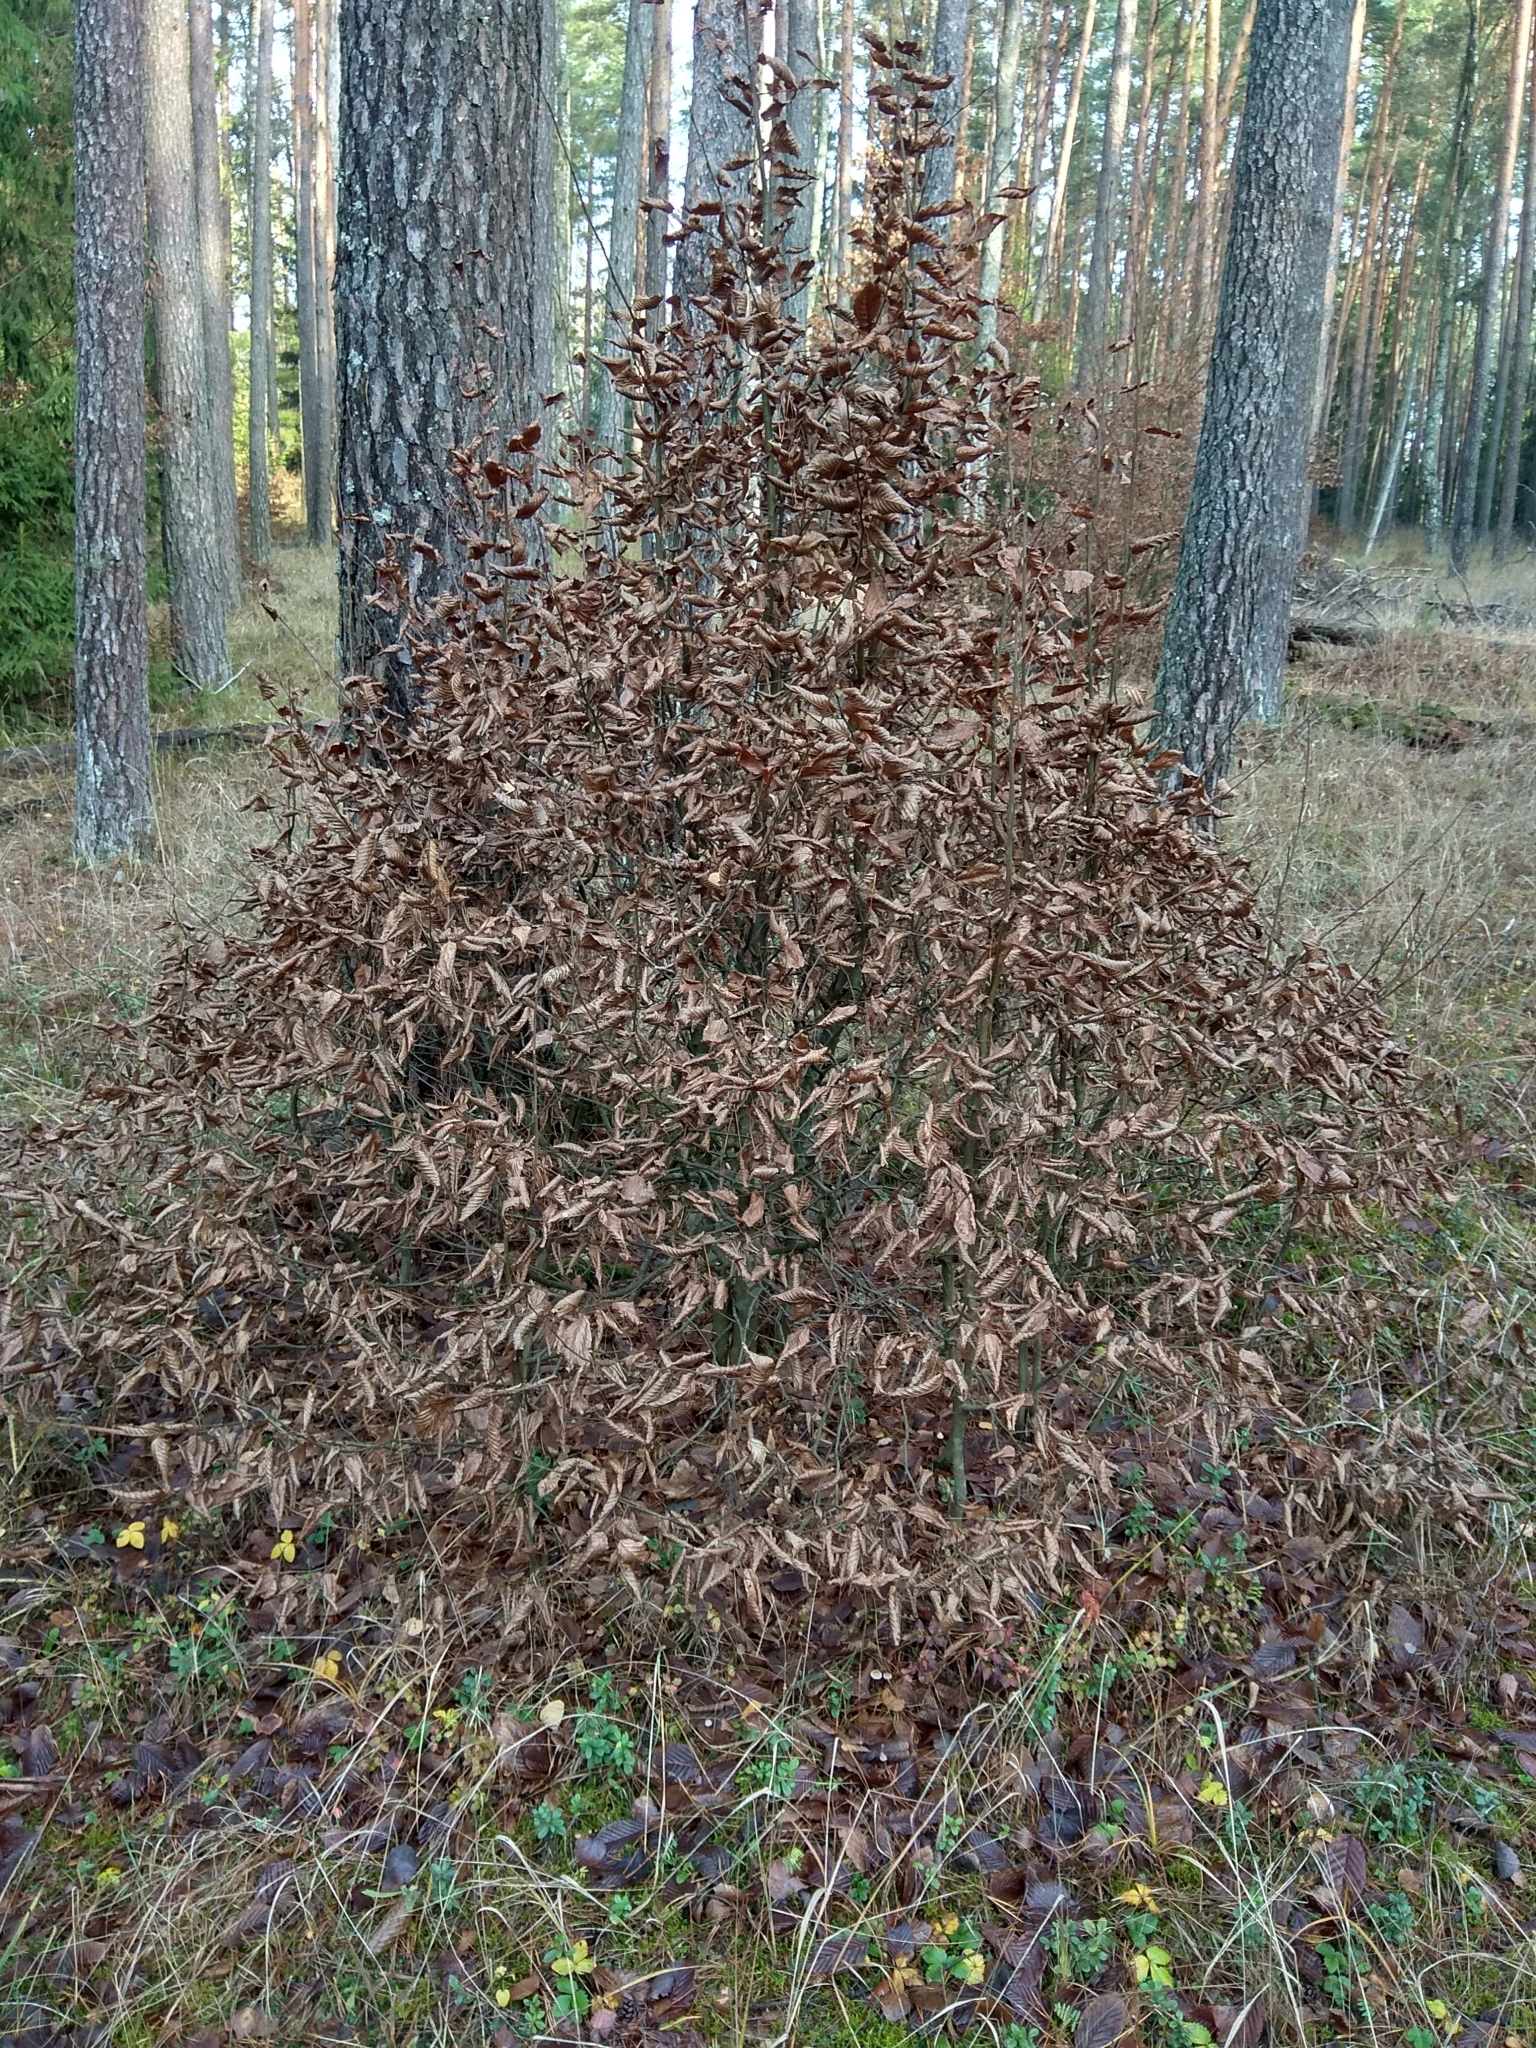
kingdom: Plantae
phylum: Tracheophyta
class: Magnoliopsida
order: Fagales
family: Betulaceae
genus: Carpinus
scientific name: Carpinus betulus
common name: Hornbeam
